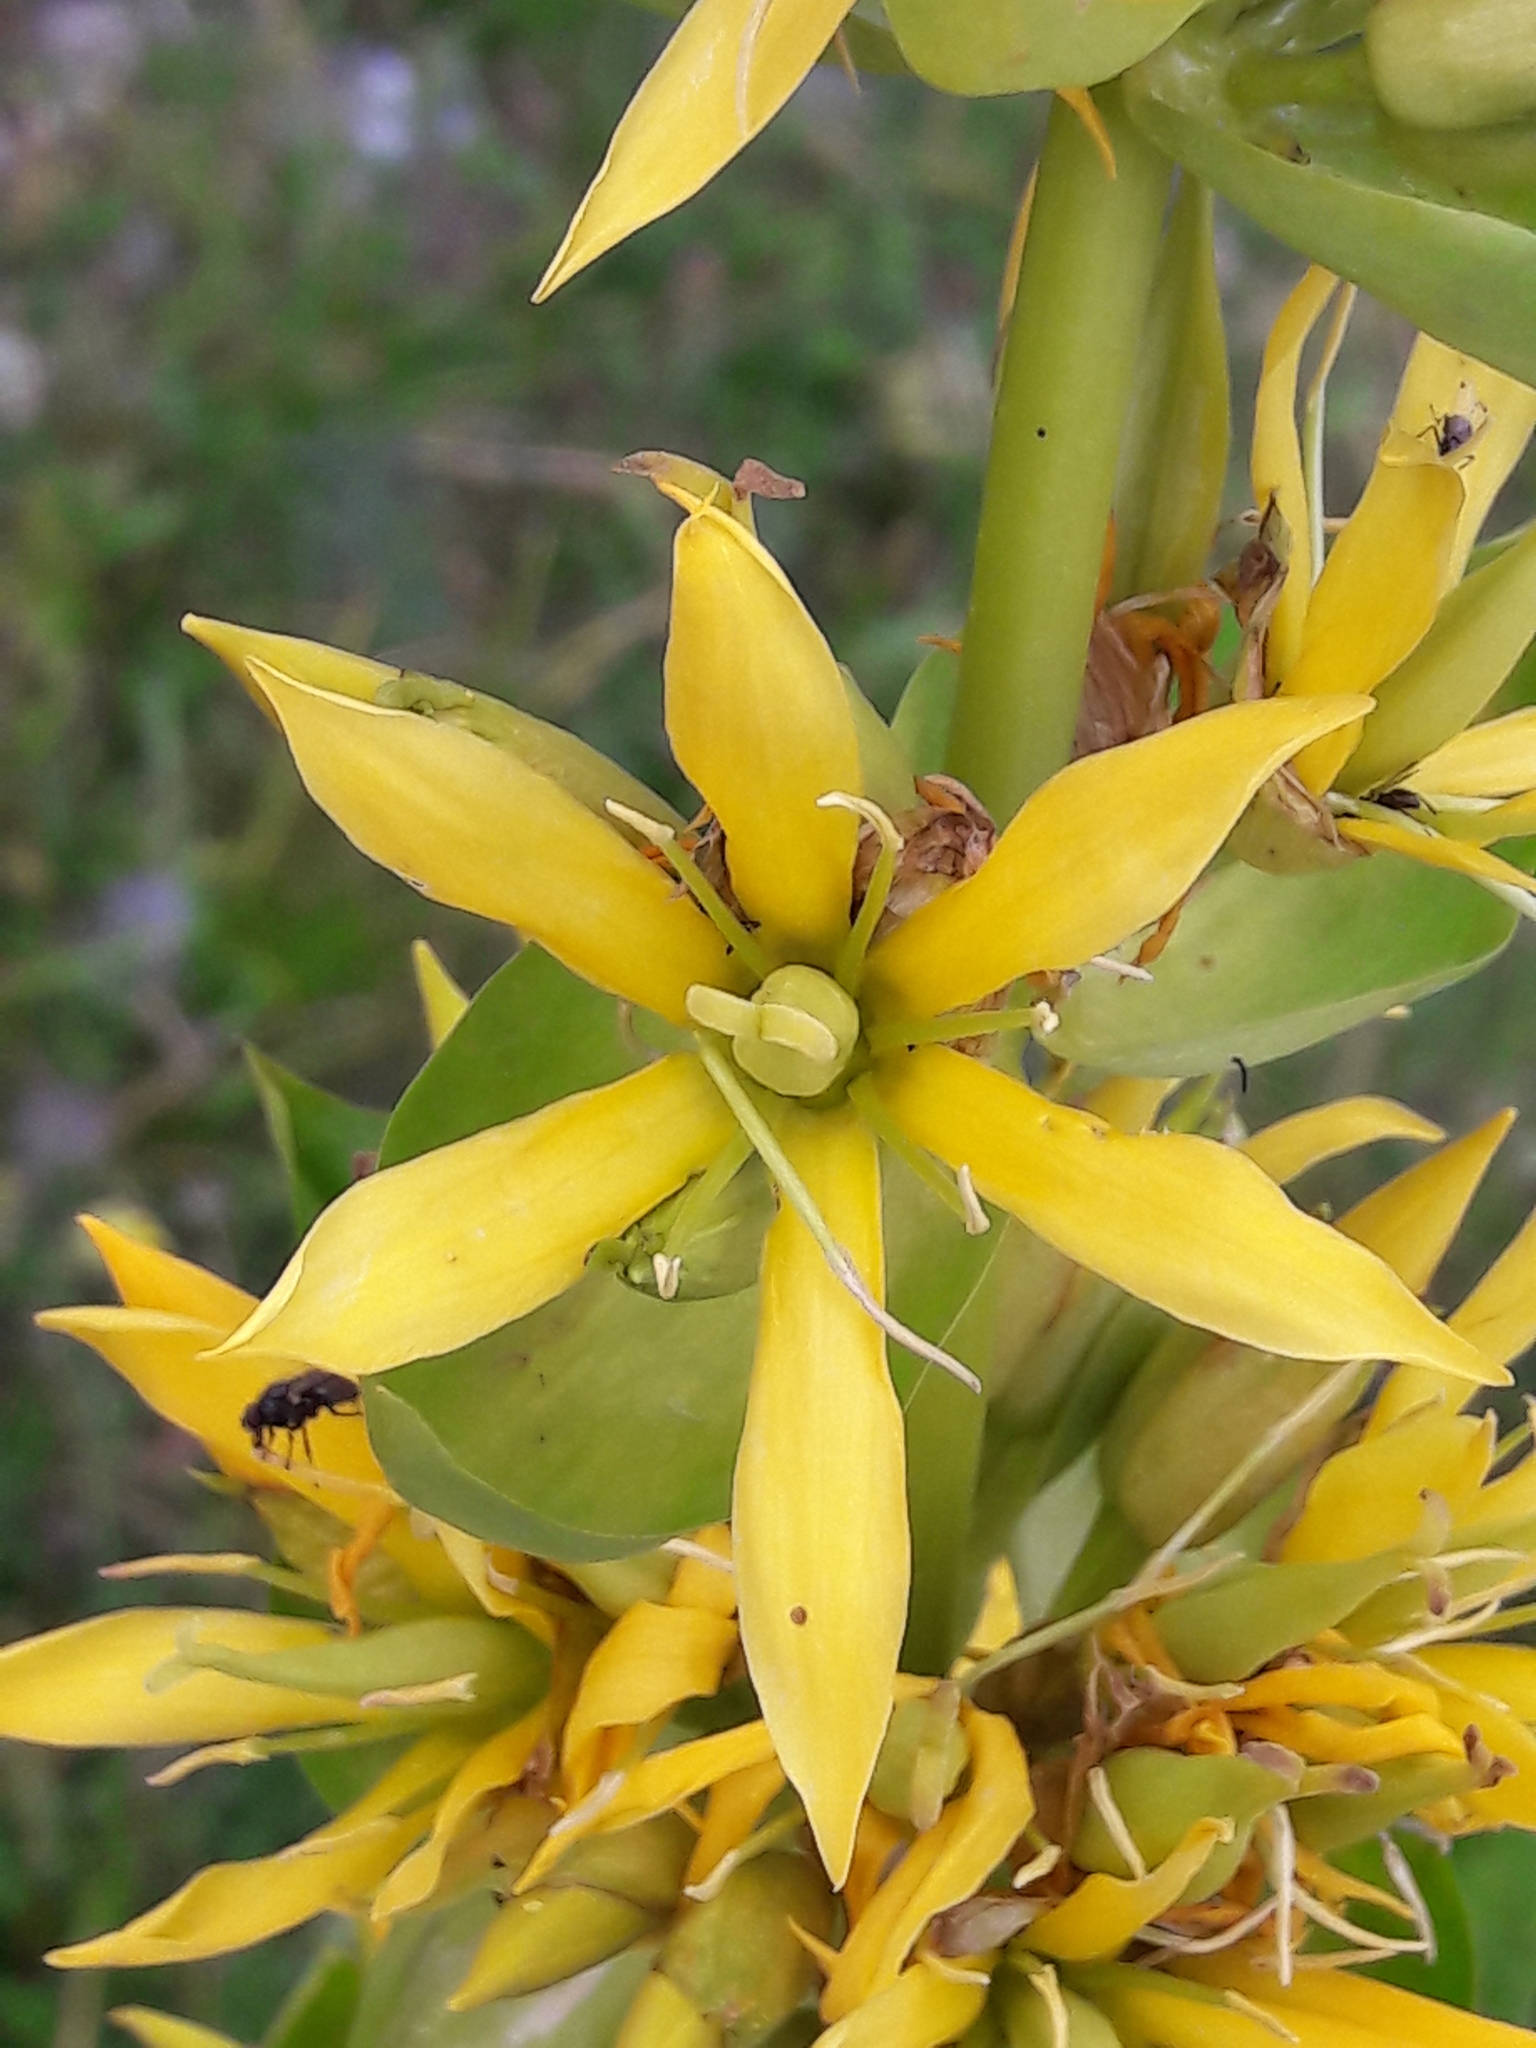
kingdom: Plantae
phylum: Tracheophyta
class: Magnoliopsida
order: Gentianales
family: Gentianaceae
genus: Gentiana
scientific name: Gentiana lutea
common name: Great yellow gentian
